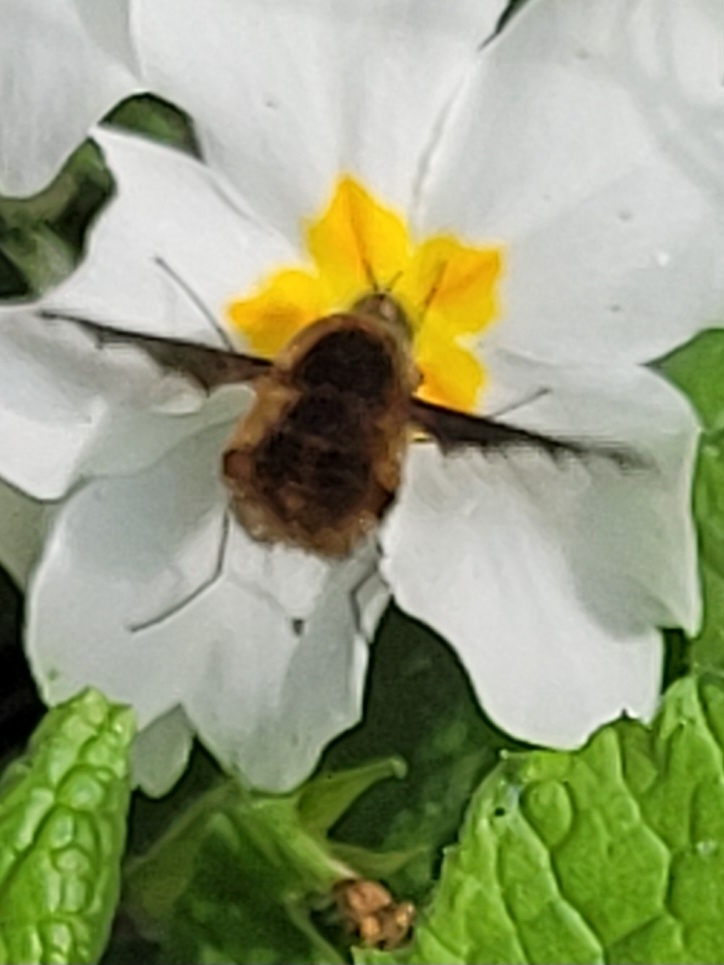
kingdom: Animalia
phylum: Arthropoda
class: Insecta
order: Diptera
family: Bombyliidae
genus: Bombylius
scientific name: Bombylius major
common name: Bee fly
